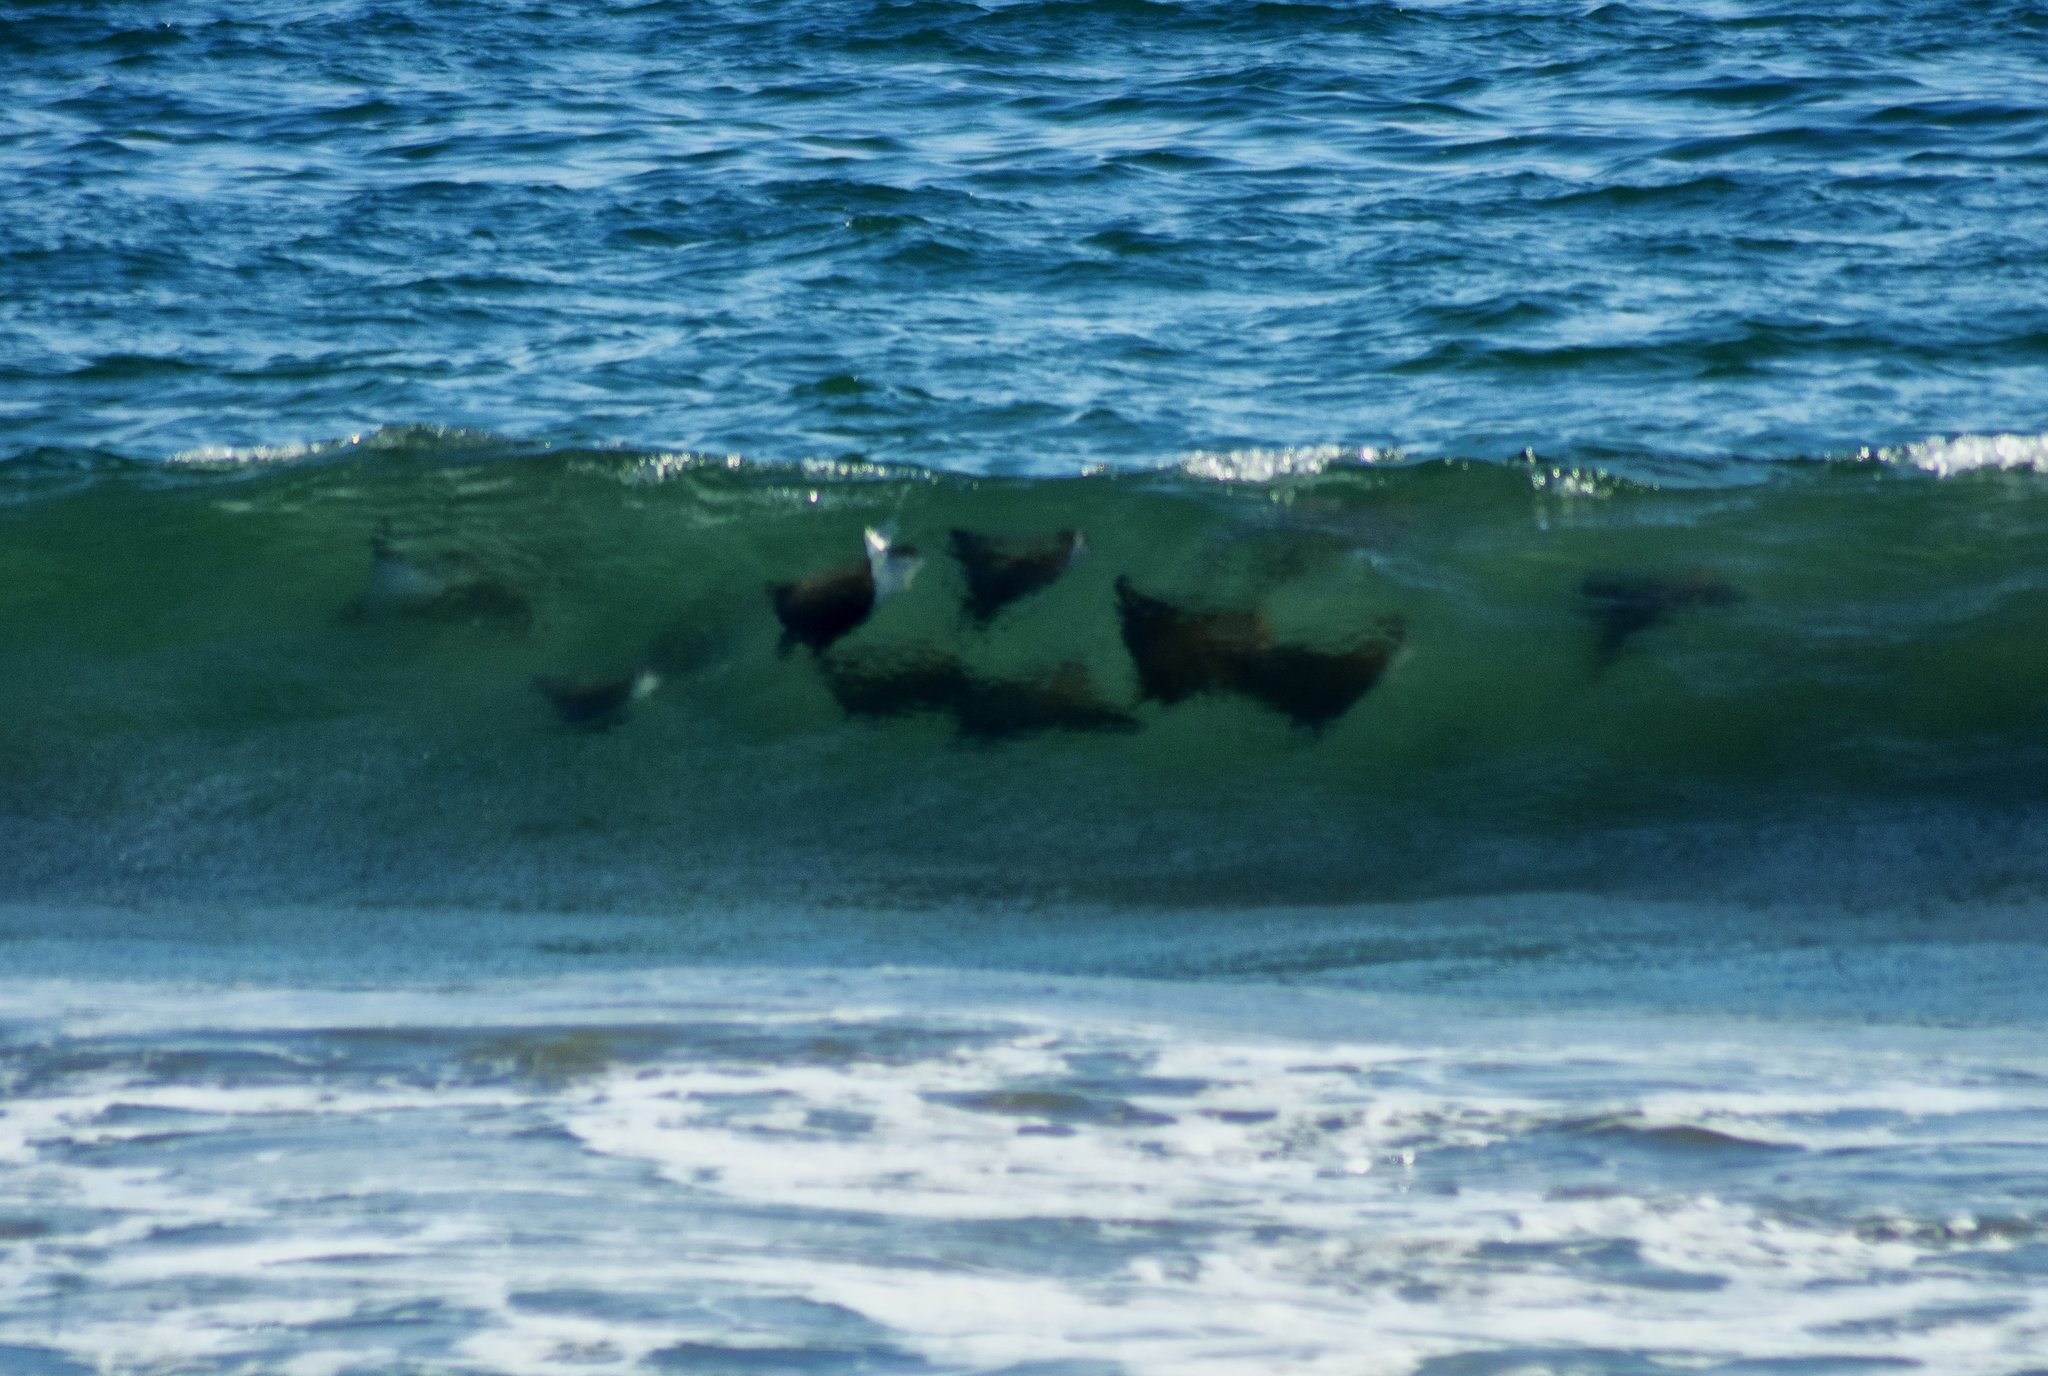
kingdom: Animalia
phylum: Chordata
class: Elasmobranchii
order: Myliobatiformes
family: Myliobatidae
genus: Mobula
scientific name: Mobula munkiana
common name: Pygmy devil ray
